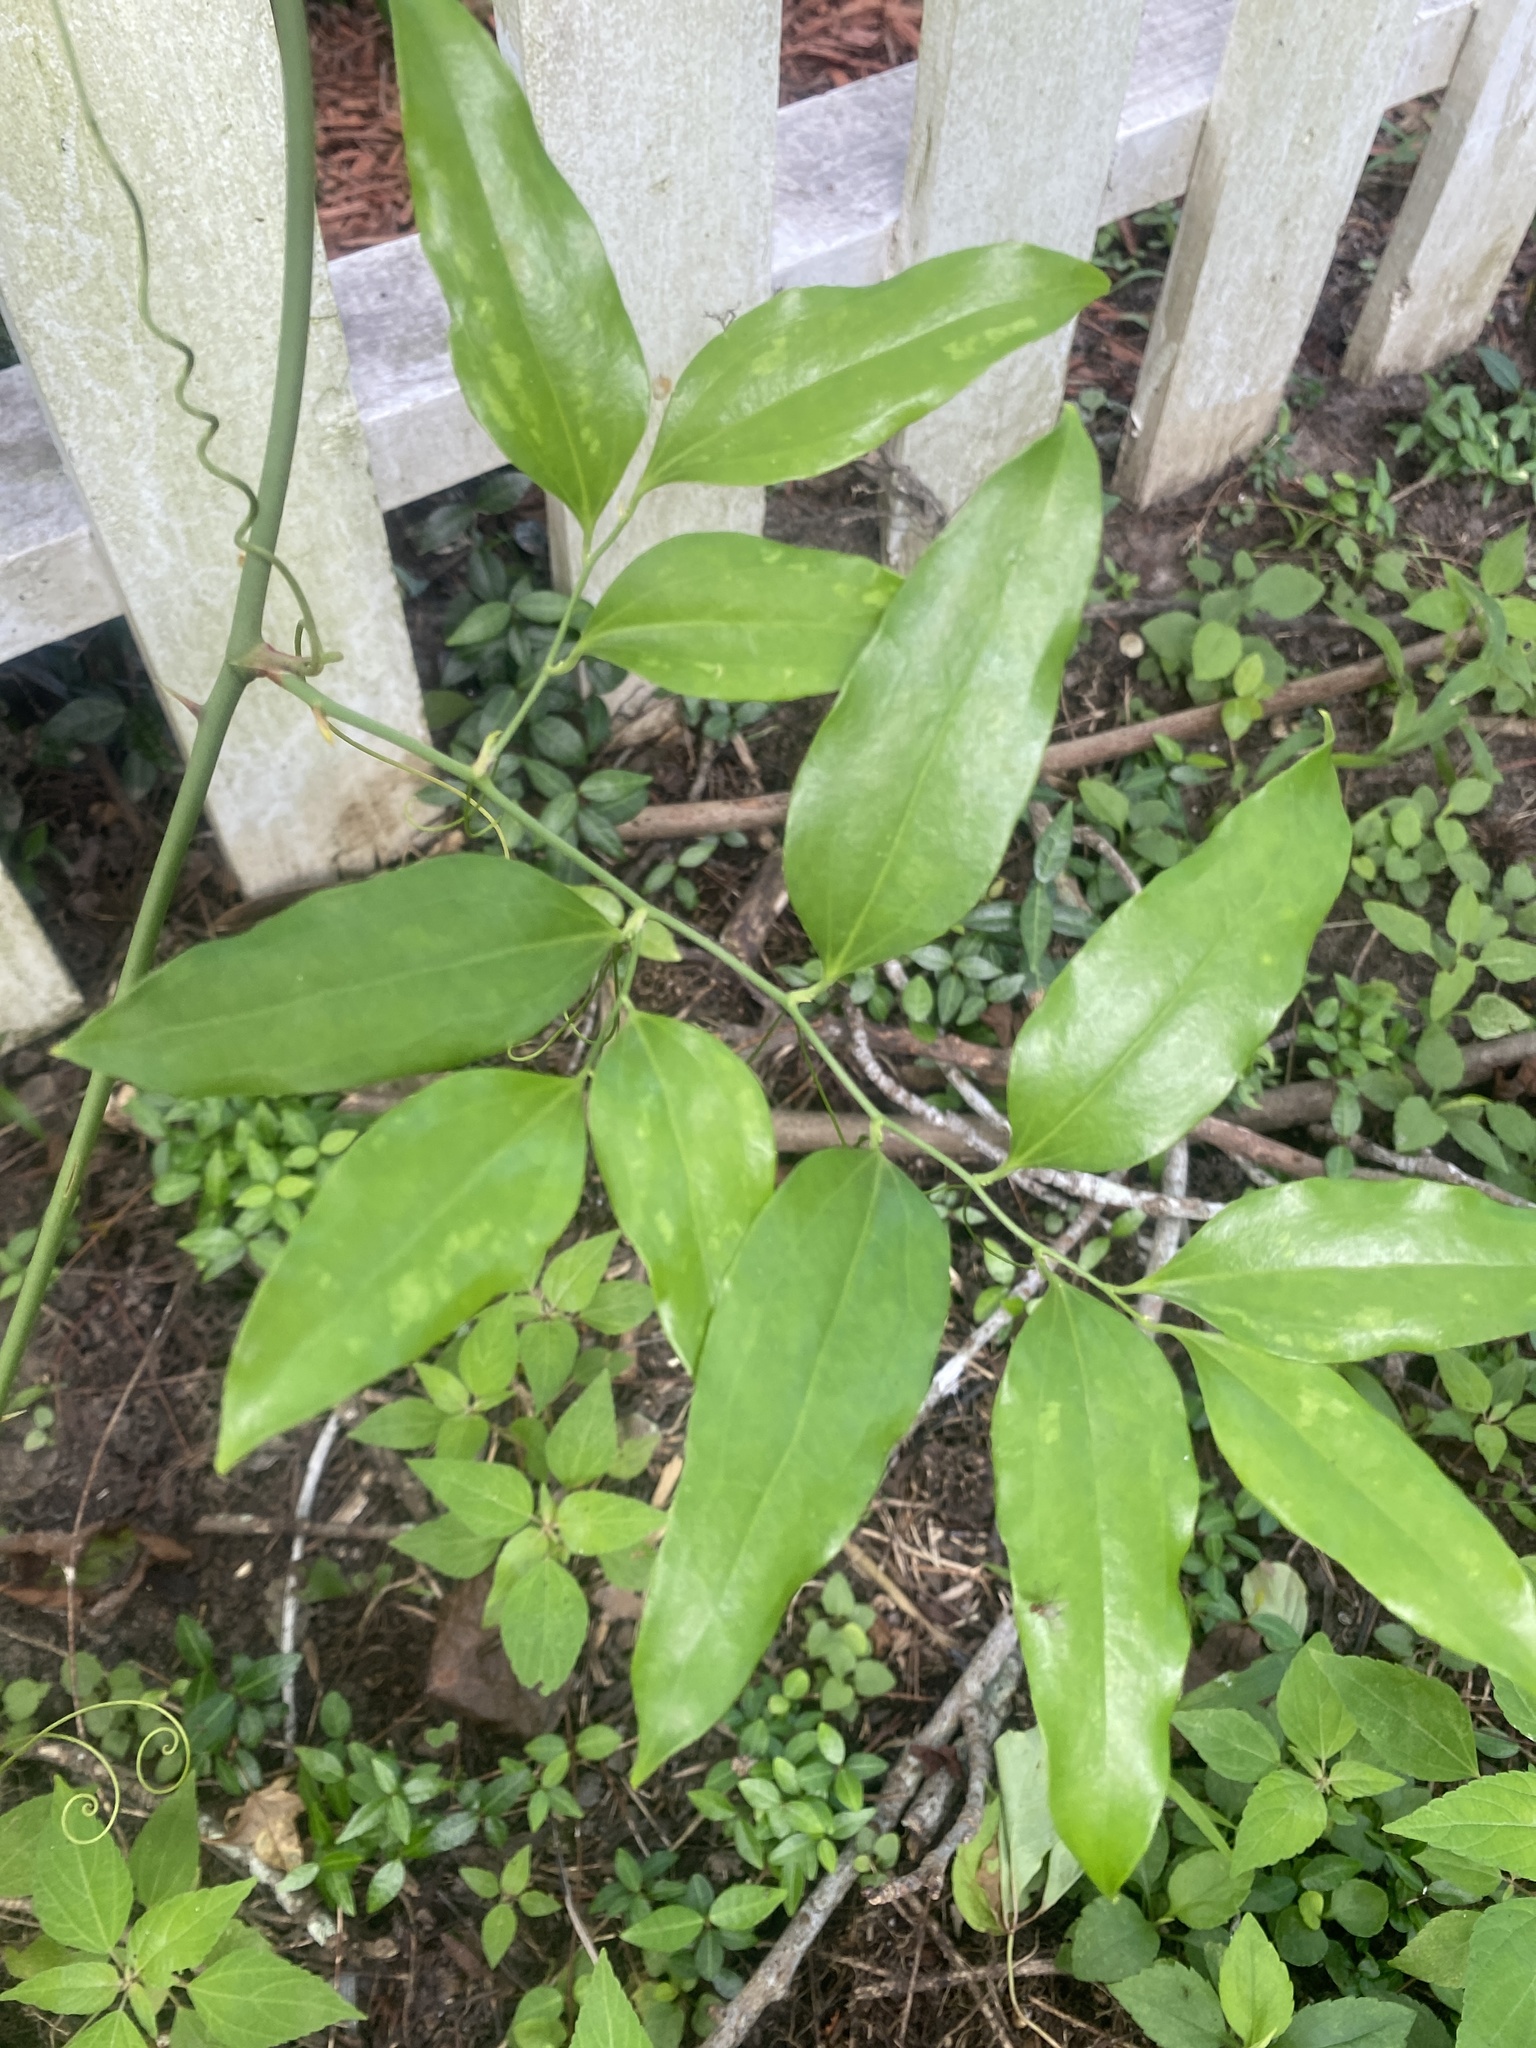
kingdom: Plantae
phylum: Tracheophyta
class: Liliopsida
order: Liliales
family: Smilacaceae
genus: Smilax
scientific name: Smilax maritima
